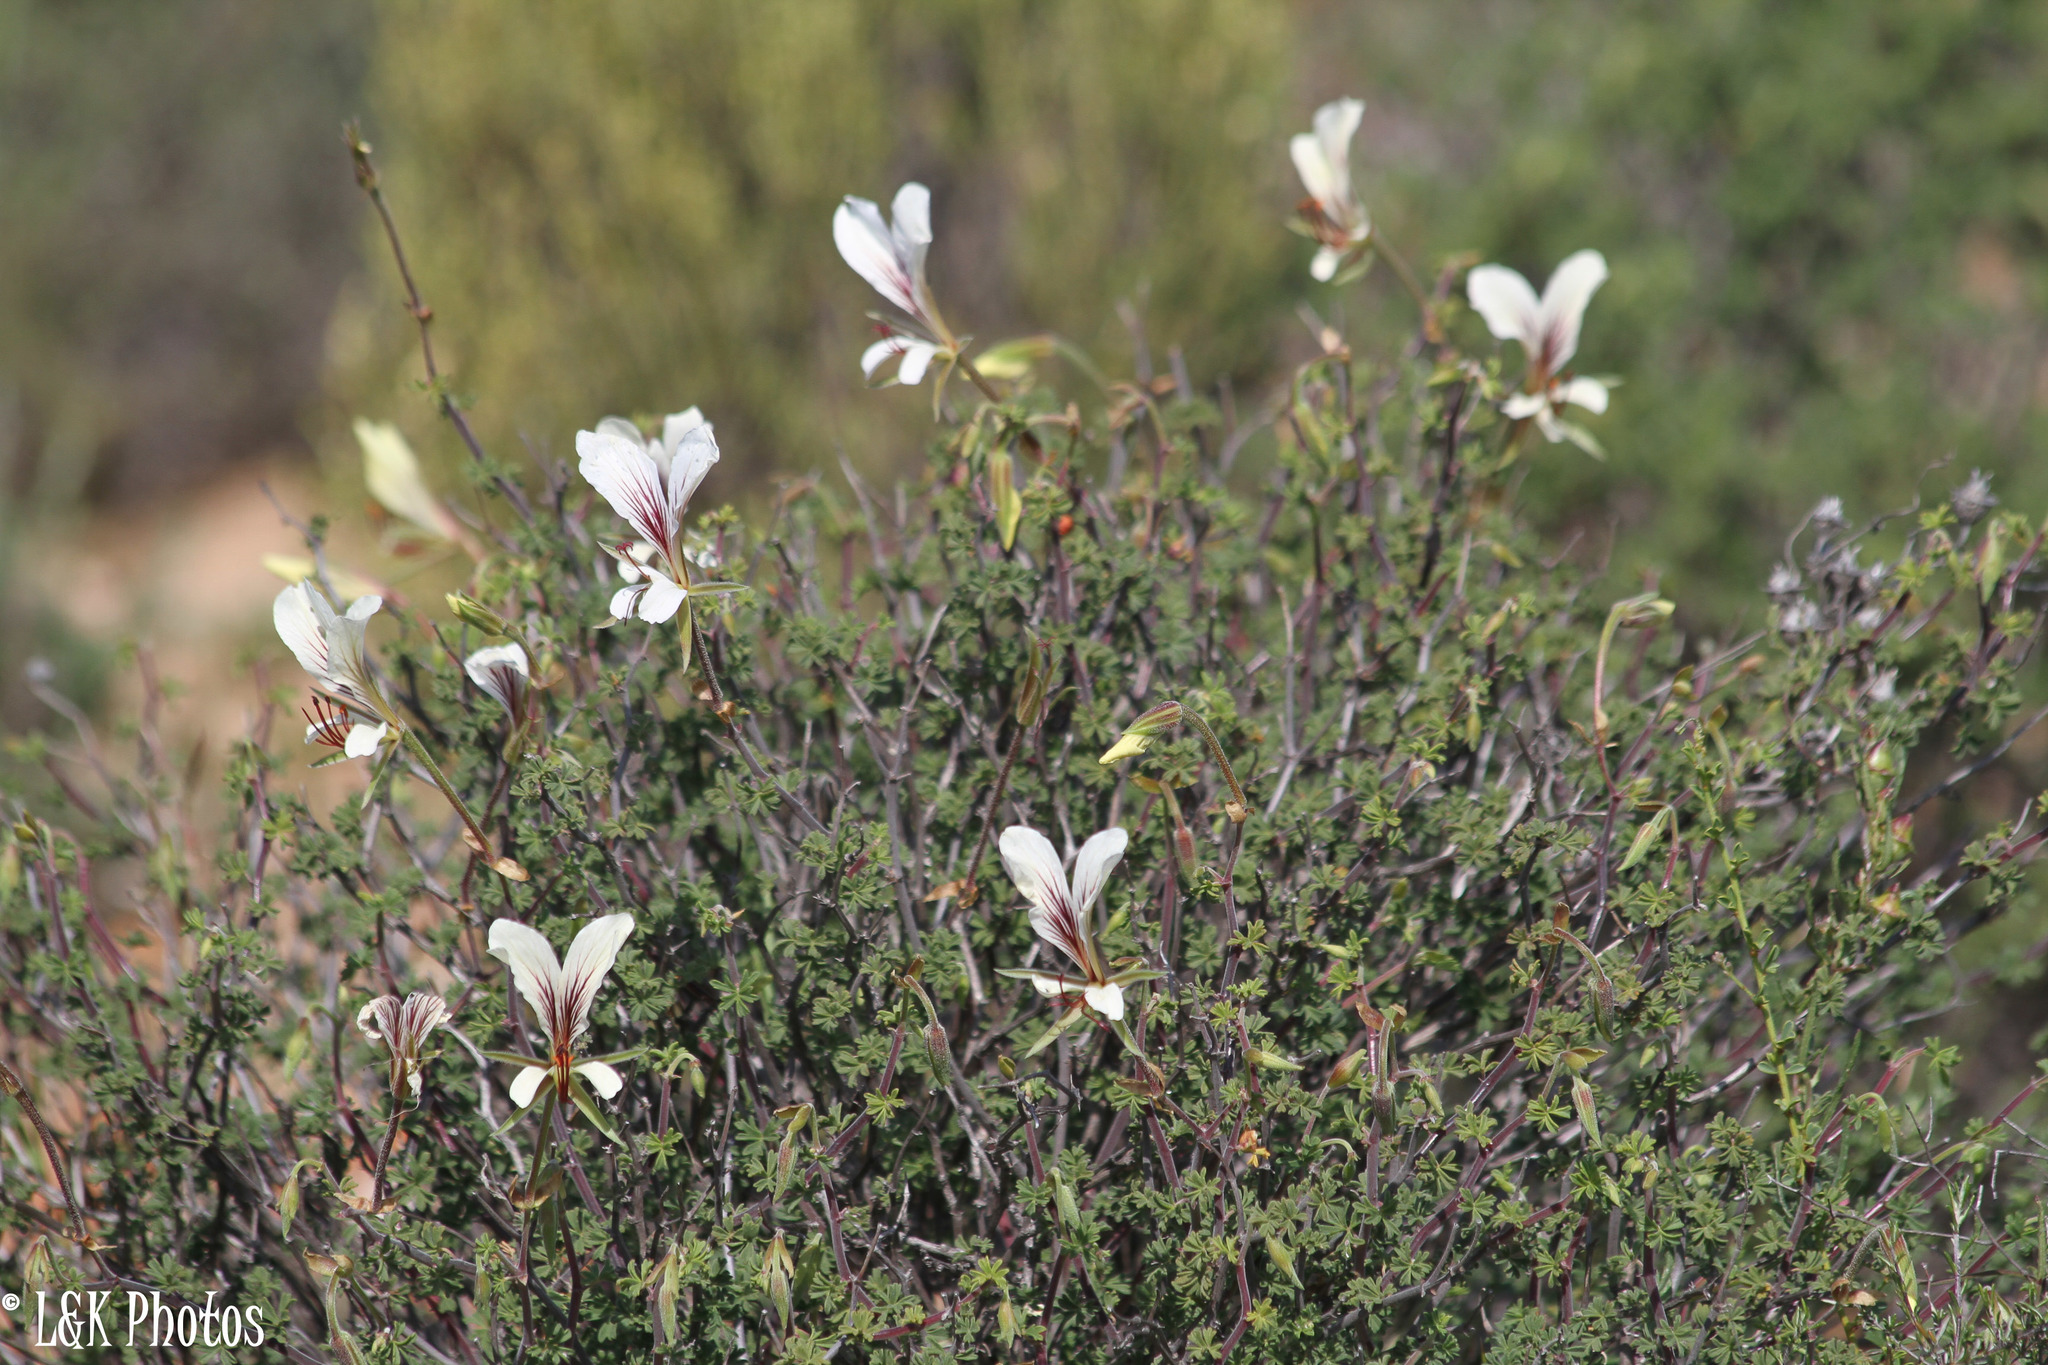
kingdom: Plantae
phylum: Tracheophyta
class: Magnoliopsida
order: Geraniales
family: Geraniaceae
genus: Pelargonium
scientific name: Pelargonium praemorsum
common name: Quinate-leaf pelargonium
